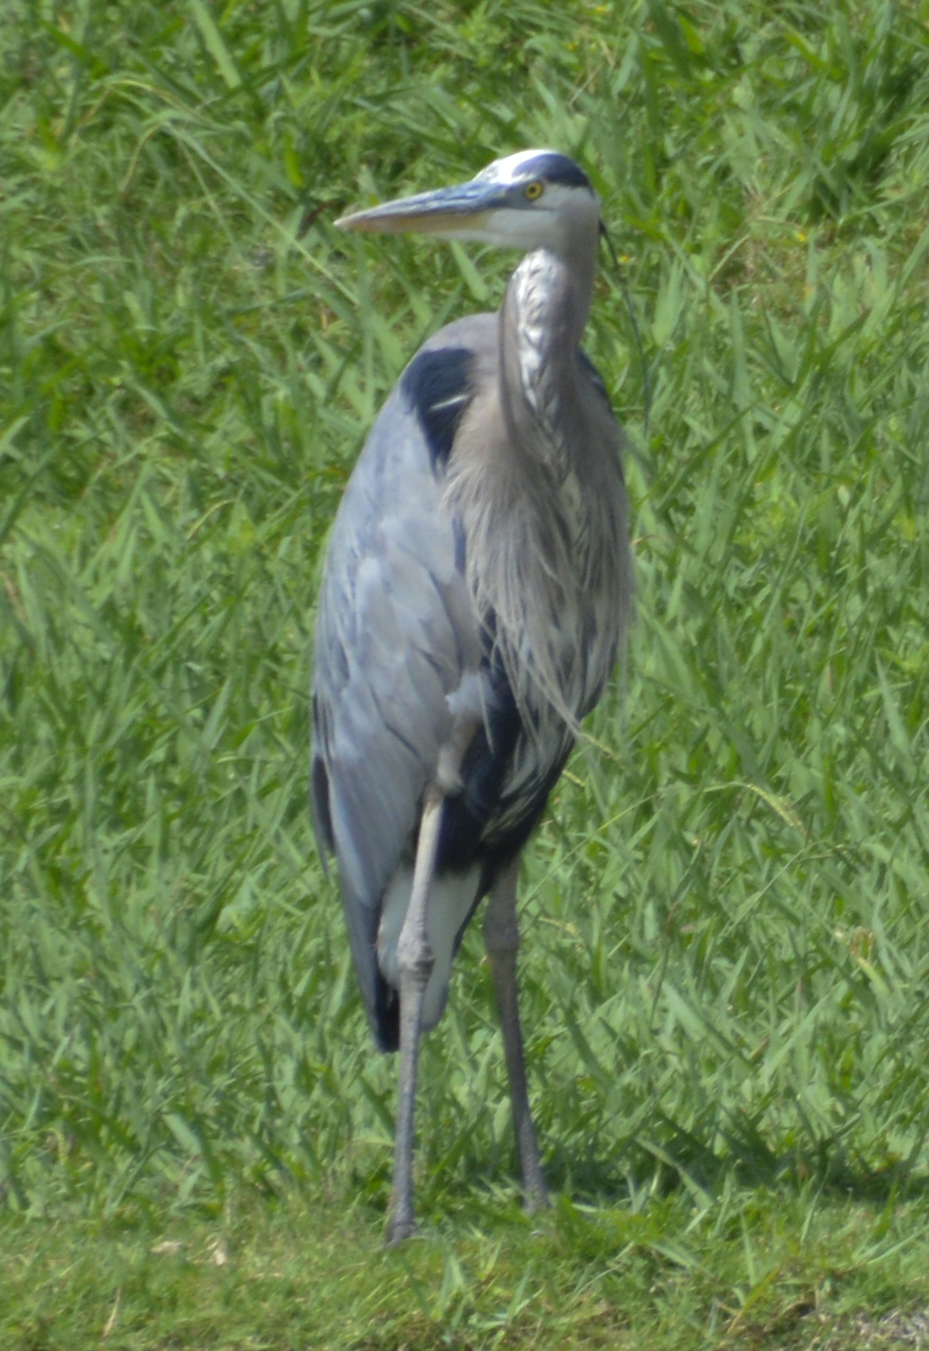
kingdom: Animalia
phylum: Chordata
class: Aves
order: Pelecaniformes
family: Ardeidae
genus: Ardea
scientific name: Ardea herodias
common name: Great blue heron
